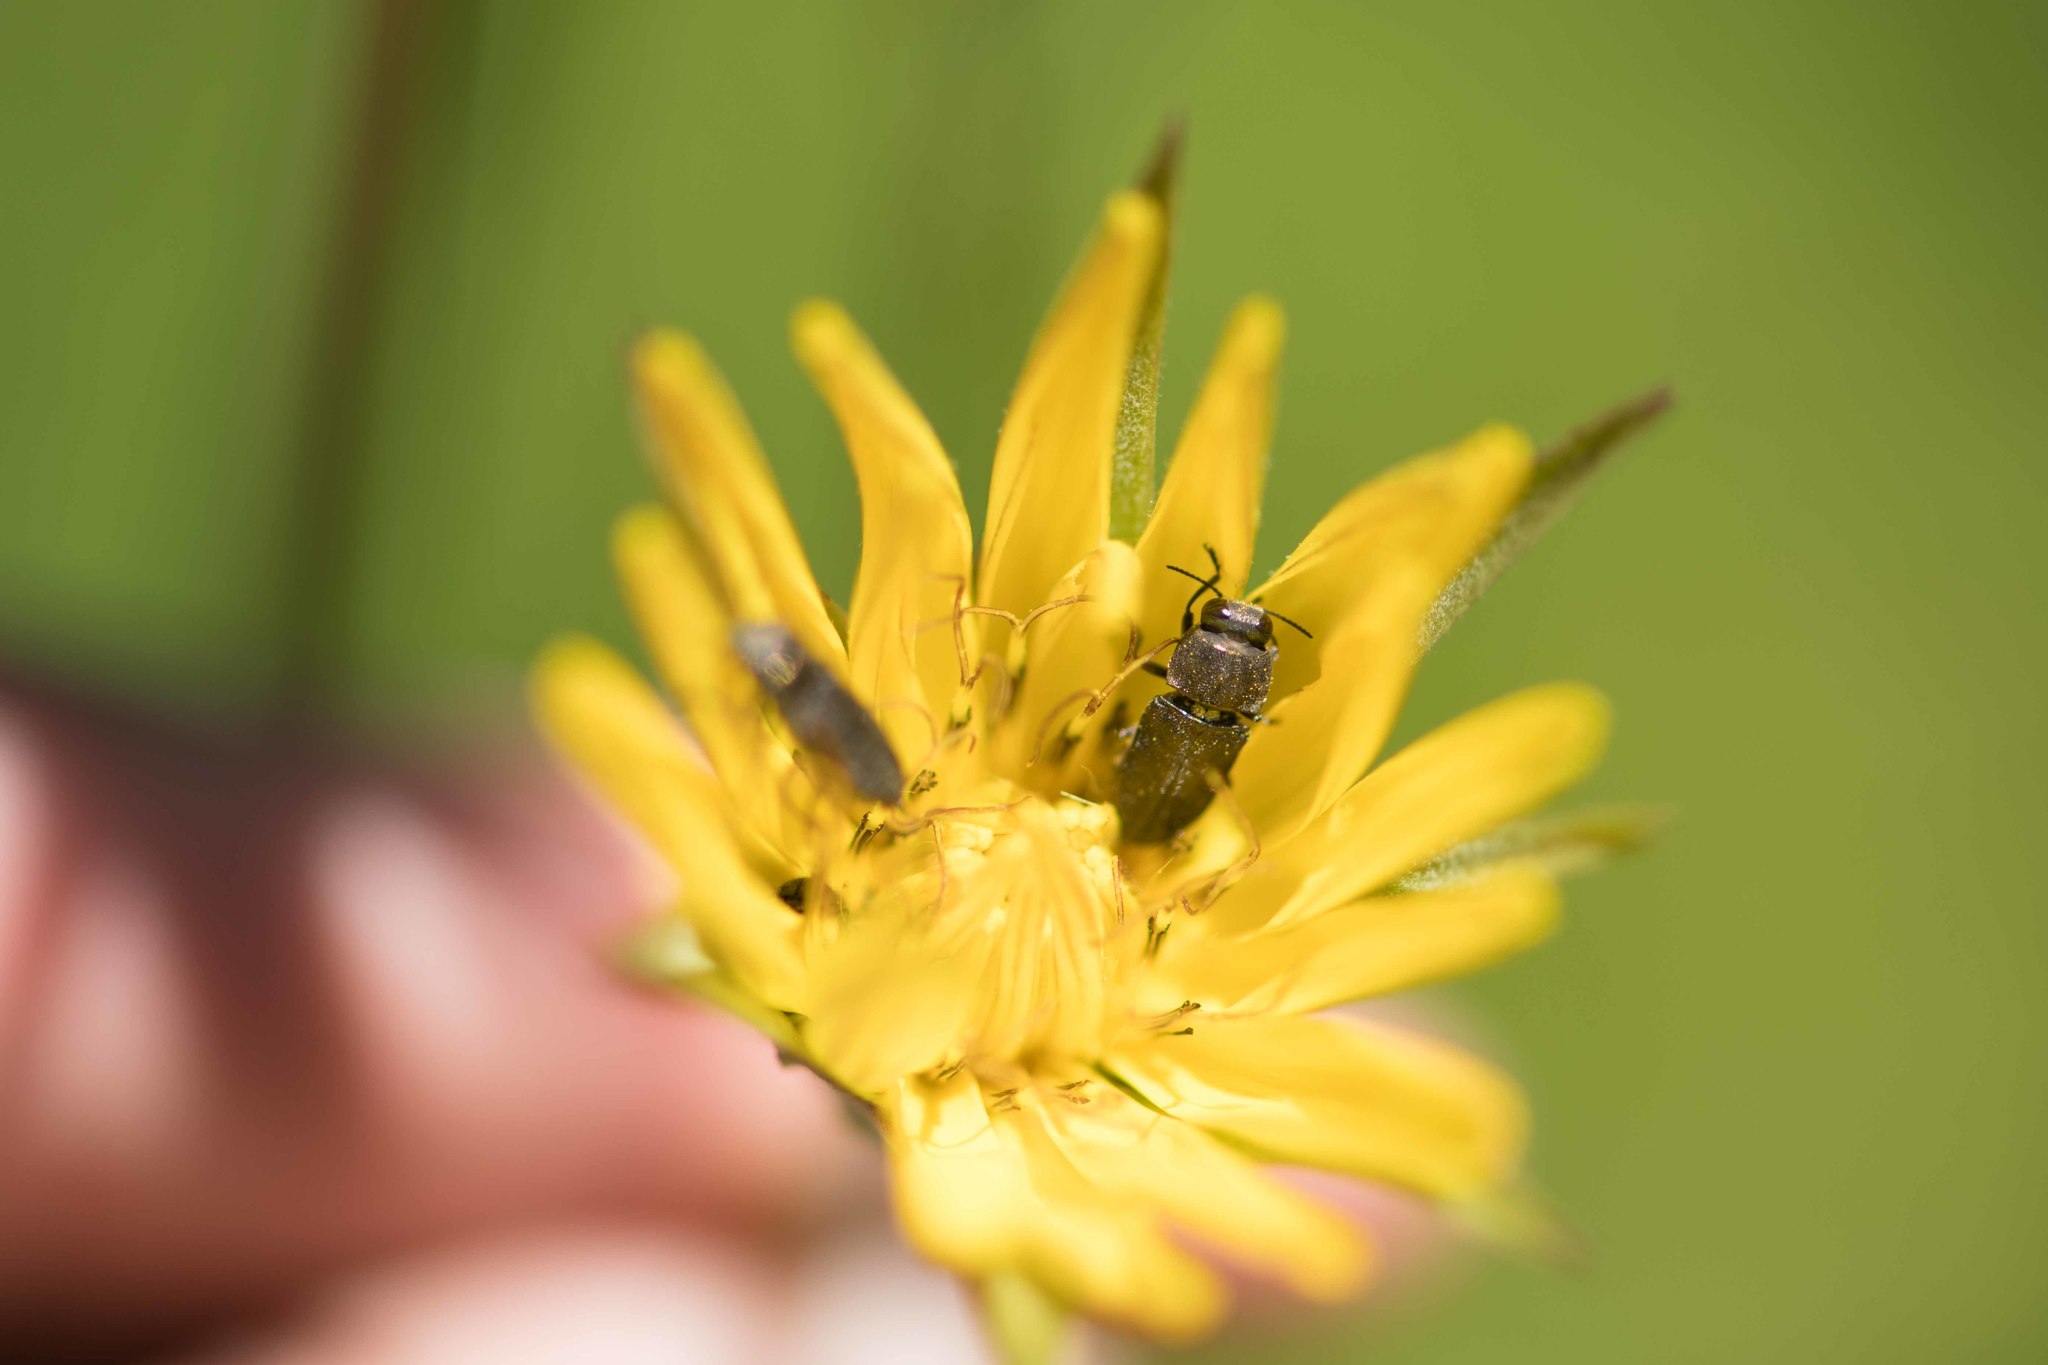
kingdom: Animalia
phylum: Arthropoda
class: Insecta
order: Coleoptera
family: Buprestidae
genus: Anthaxia
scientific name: Anthaxia confusa
